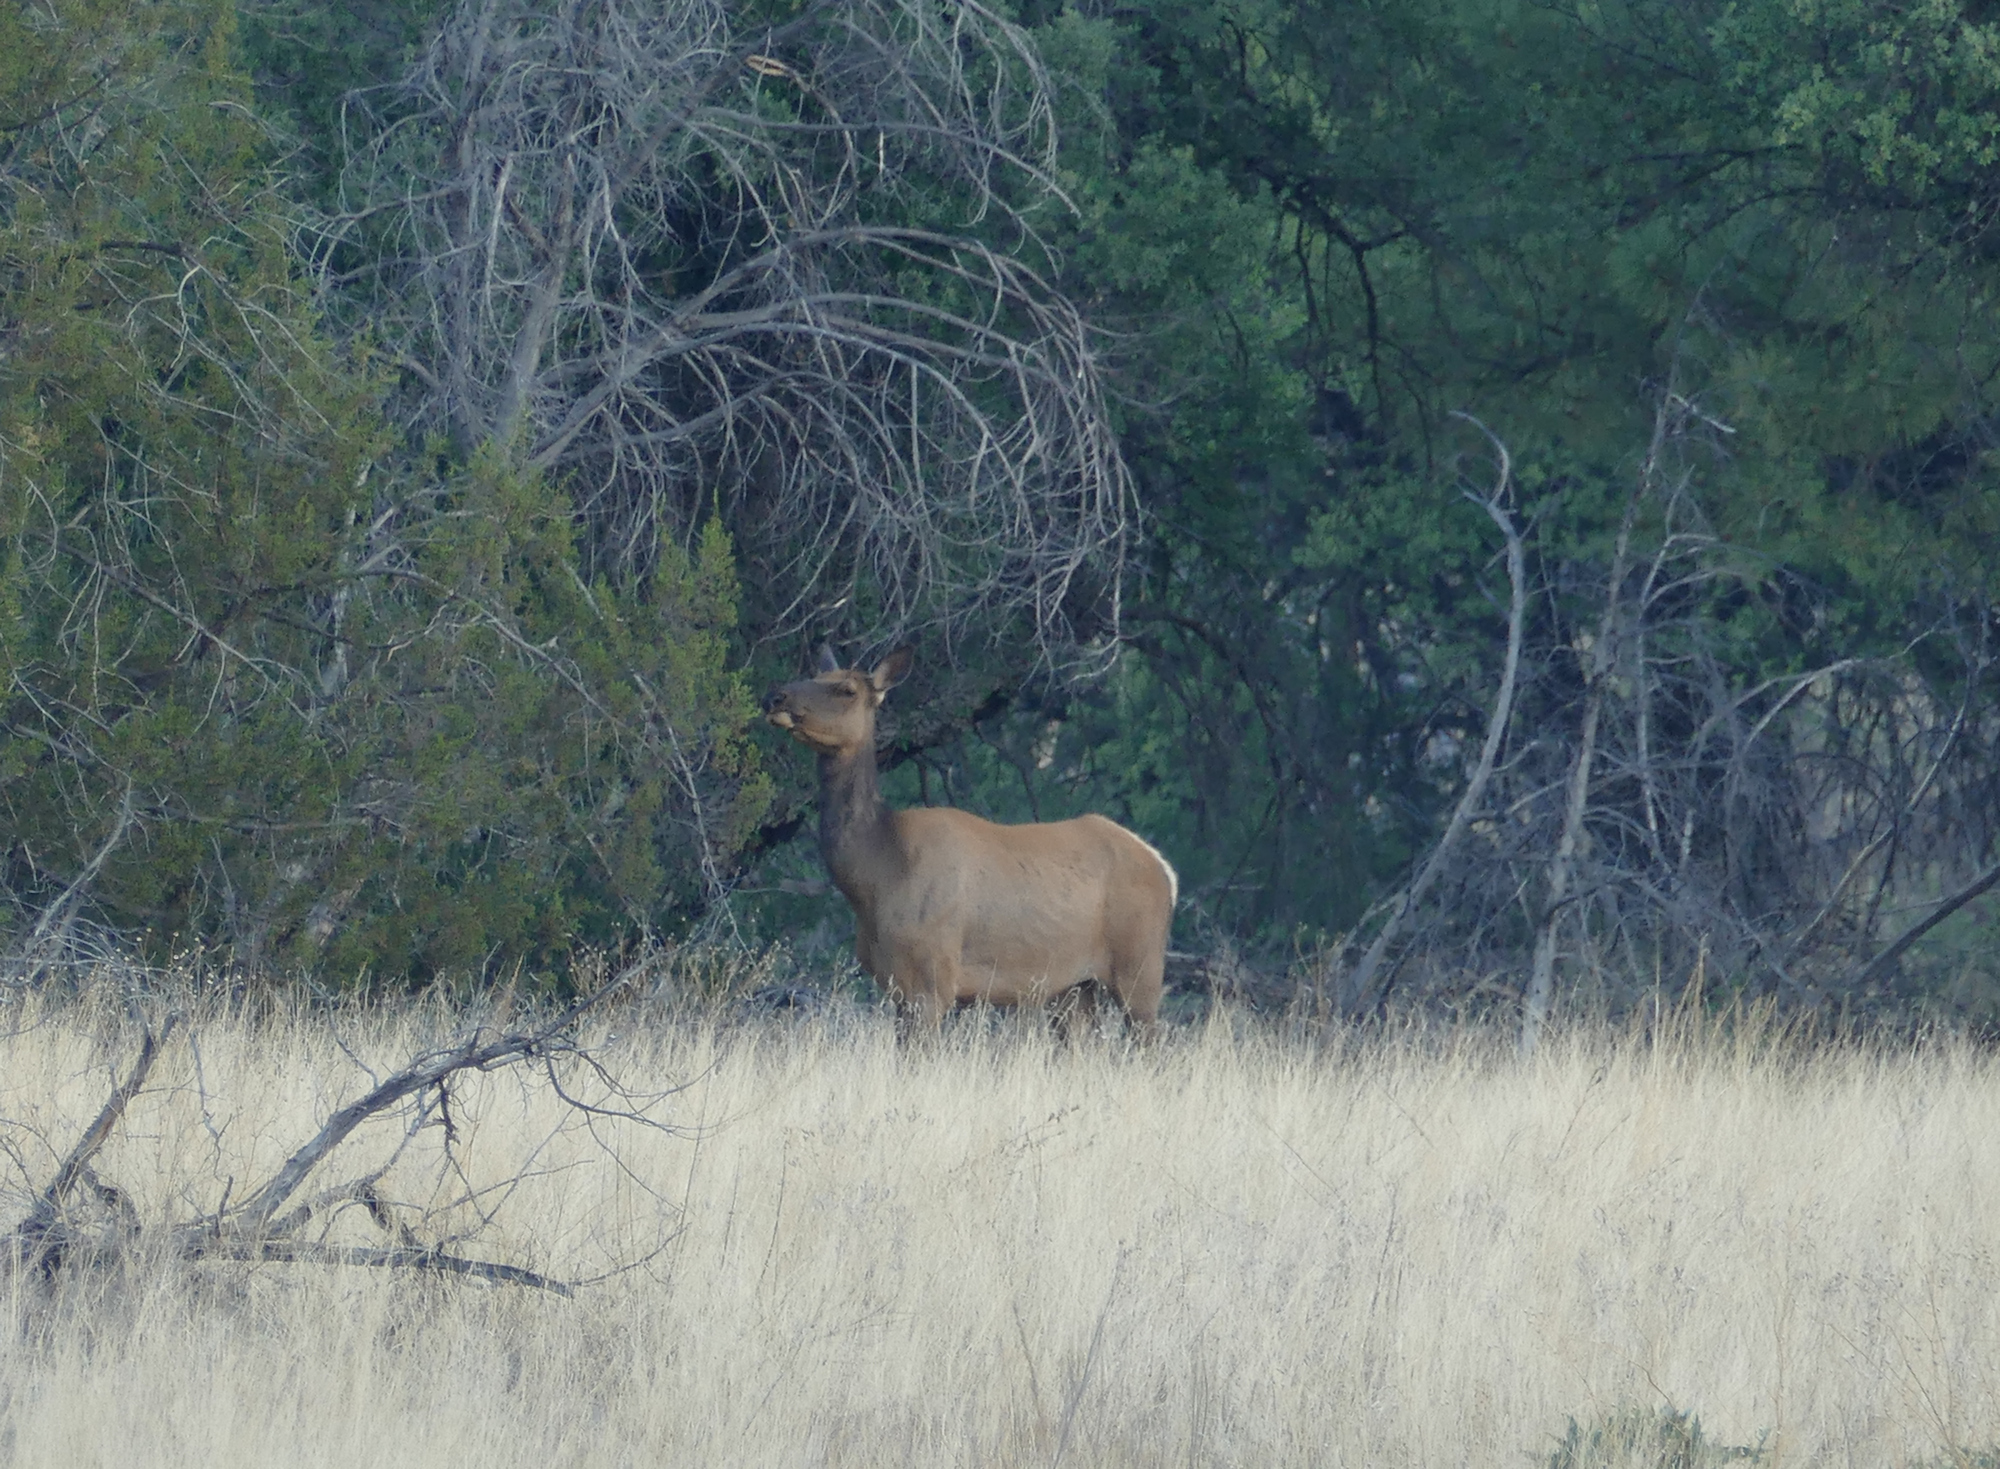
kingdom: Animalia
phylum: Chordata
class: Mammalia
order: Artiodactyla
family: Cervidae
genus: Cervus
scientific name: Cervus elaphus
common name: Red deer
